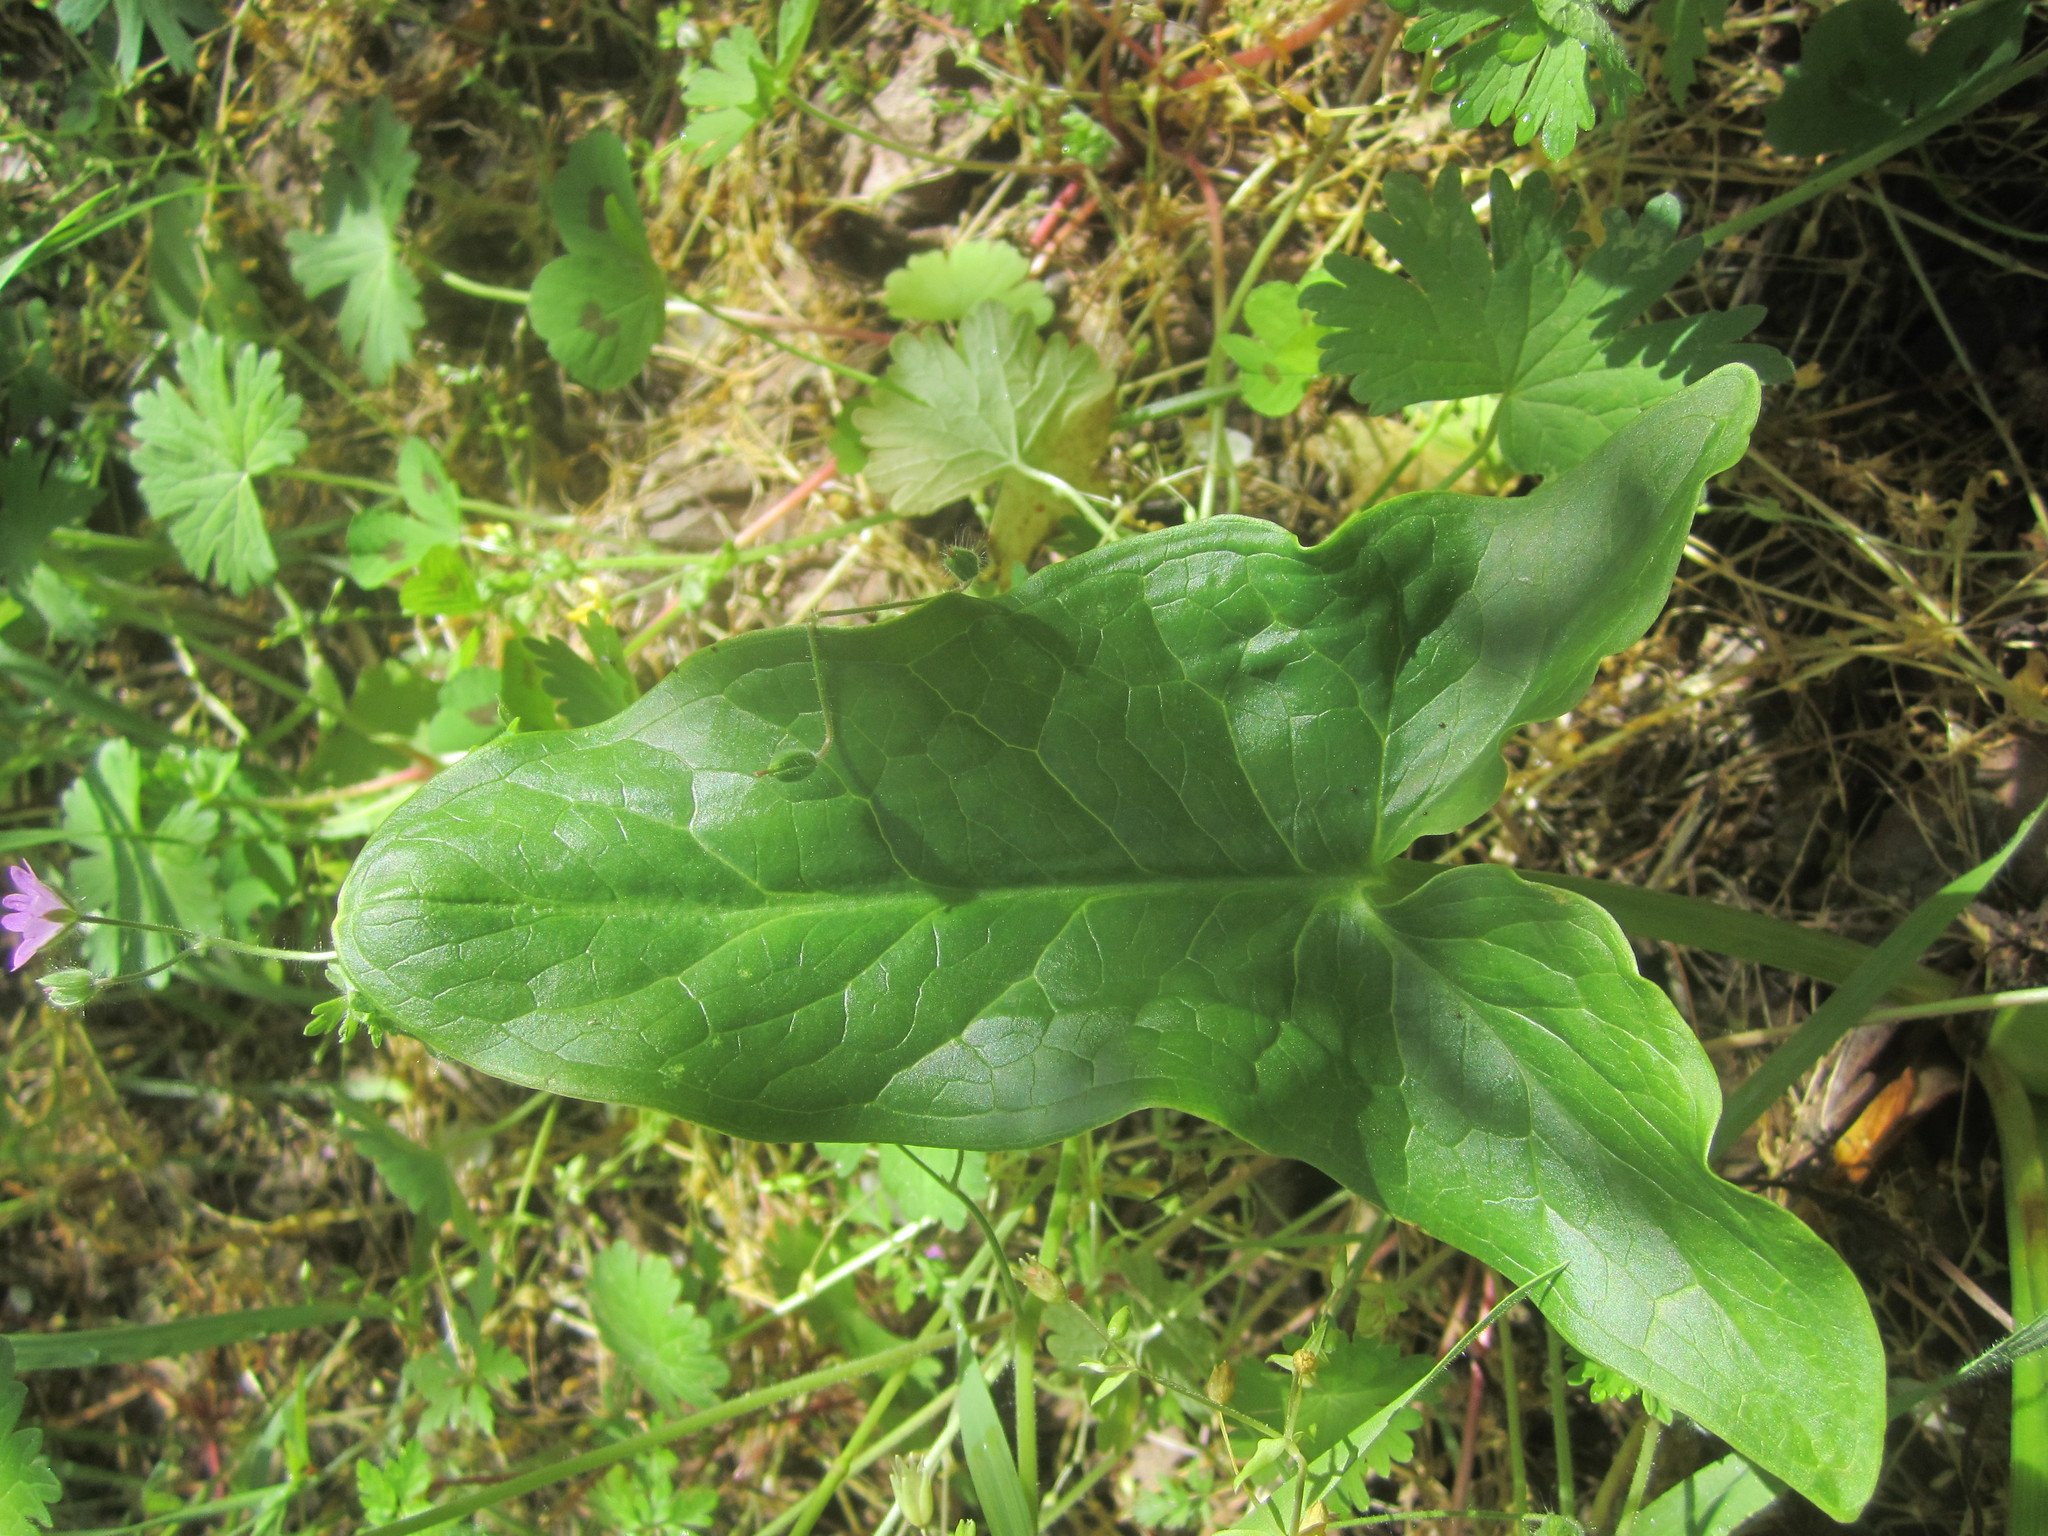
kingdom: Plantae
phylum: Tracheophyta
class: Liliopsida
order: Alismatales
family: Araceae
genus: Arum
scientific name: Arum italicum
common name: Italian lords-and-ladies
